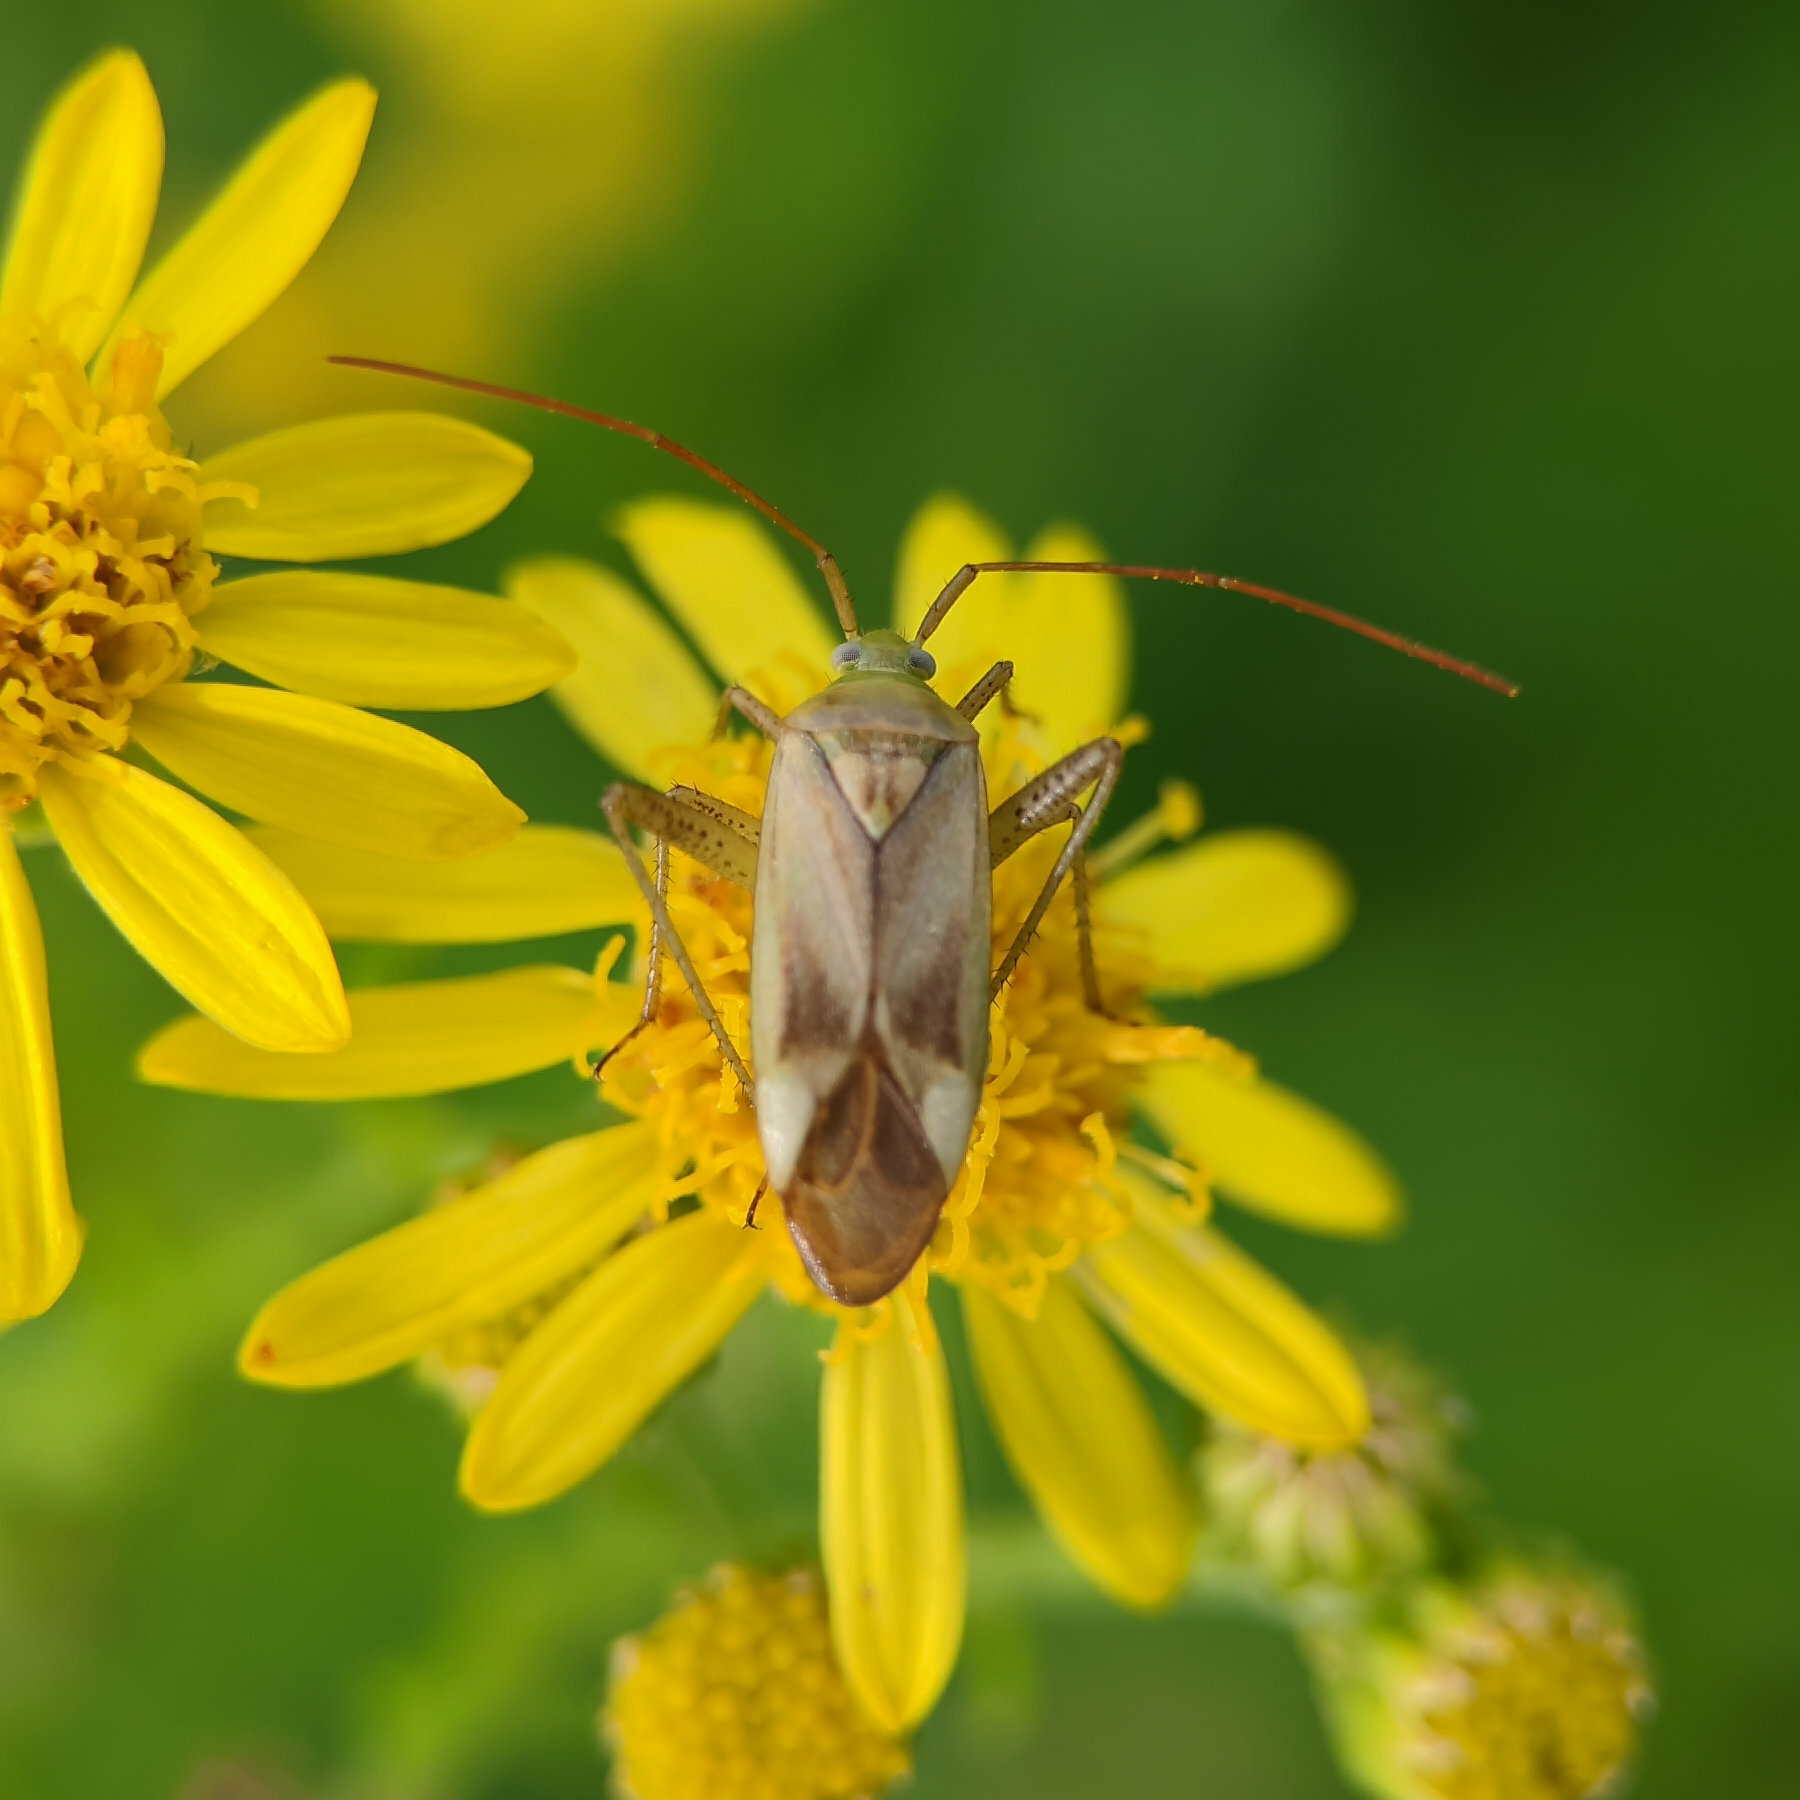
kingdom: Animalia
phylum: Arthropoda
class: Insecta
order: Hemiptera
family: Miridae
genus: Adelphocoris
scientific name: Adelphocoris lineolatus
